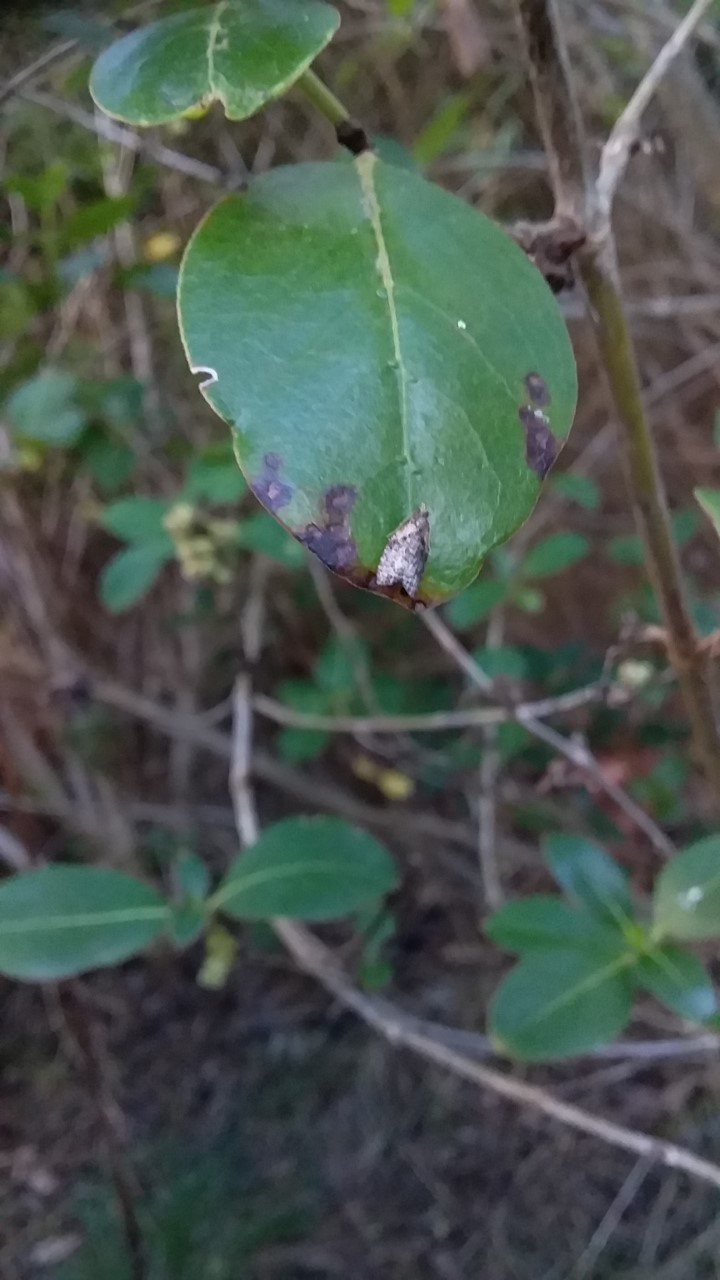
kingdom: Animalia
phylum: Arthropoda
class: Insecta
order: Lepidoptera
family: Tortricidae
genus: Capua
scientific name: Capua intractana
